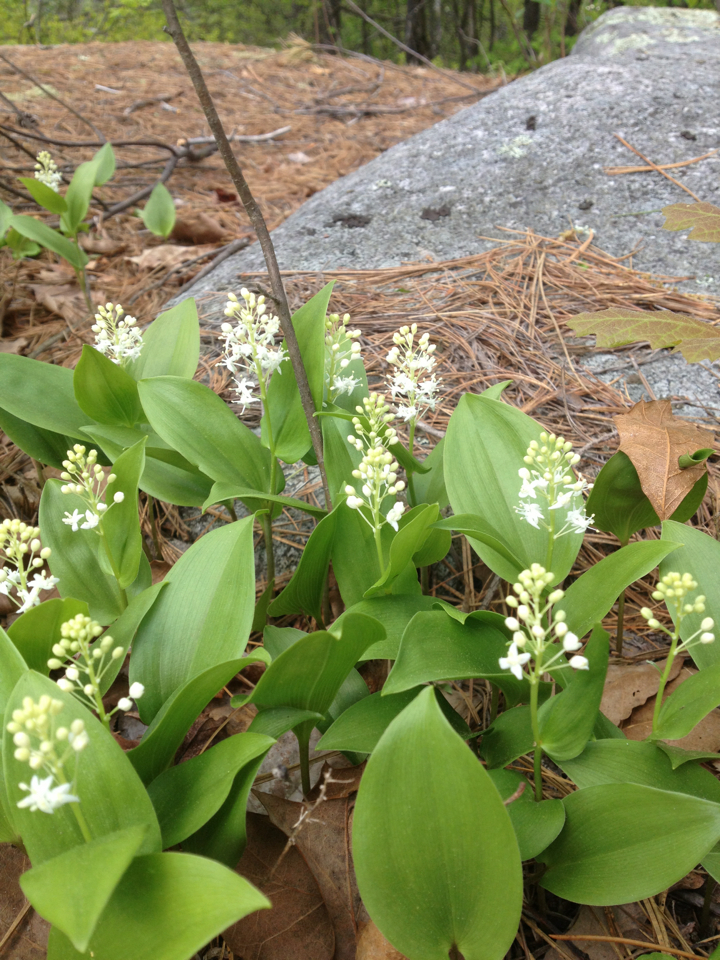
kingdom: Plantae
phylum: Tracheophyta
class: Liliopsida
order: Asparagales
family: Asparagaceae
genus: Maianthemum
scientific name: Maianthemum canadense
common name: False lily-of-the-valley
